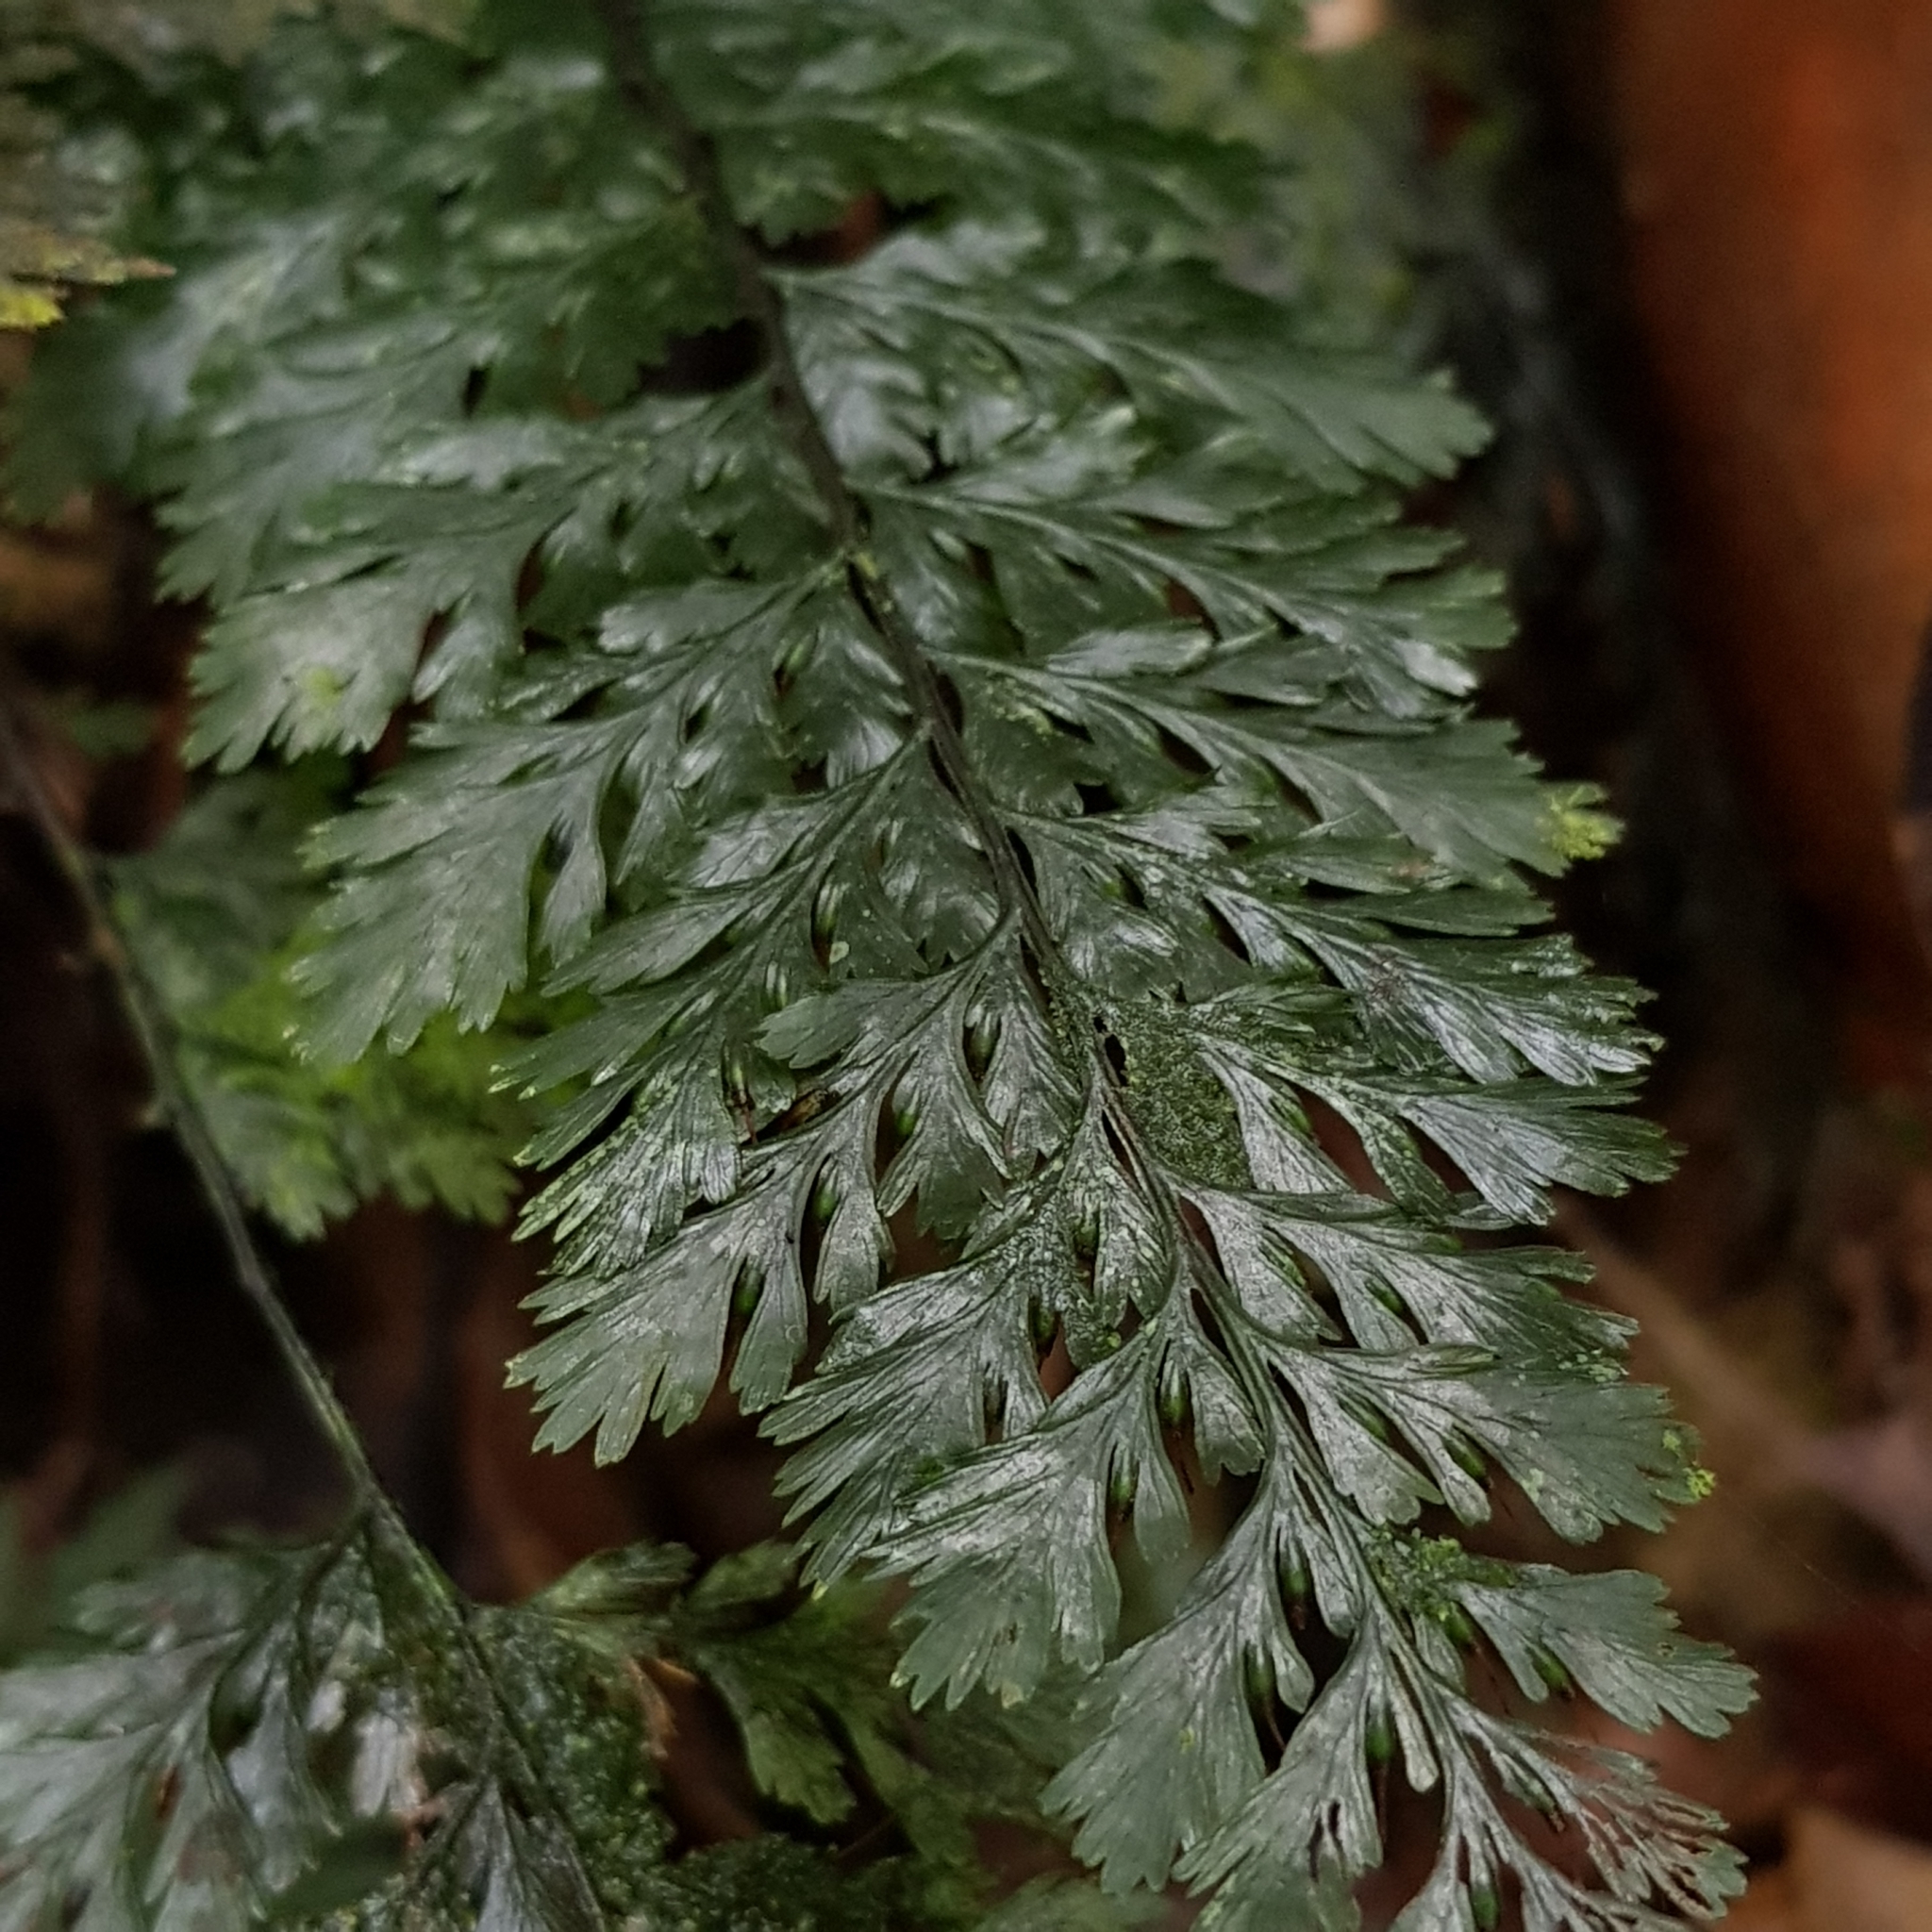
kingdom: Plantae
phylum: Tracheophyta
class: Polypodiopsida
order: Hymenophyllales
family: Hymenophyllaceae
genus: Abrodictyum
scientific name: Abrodictyum obscurum
